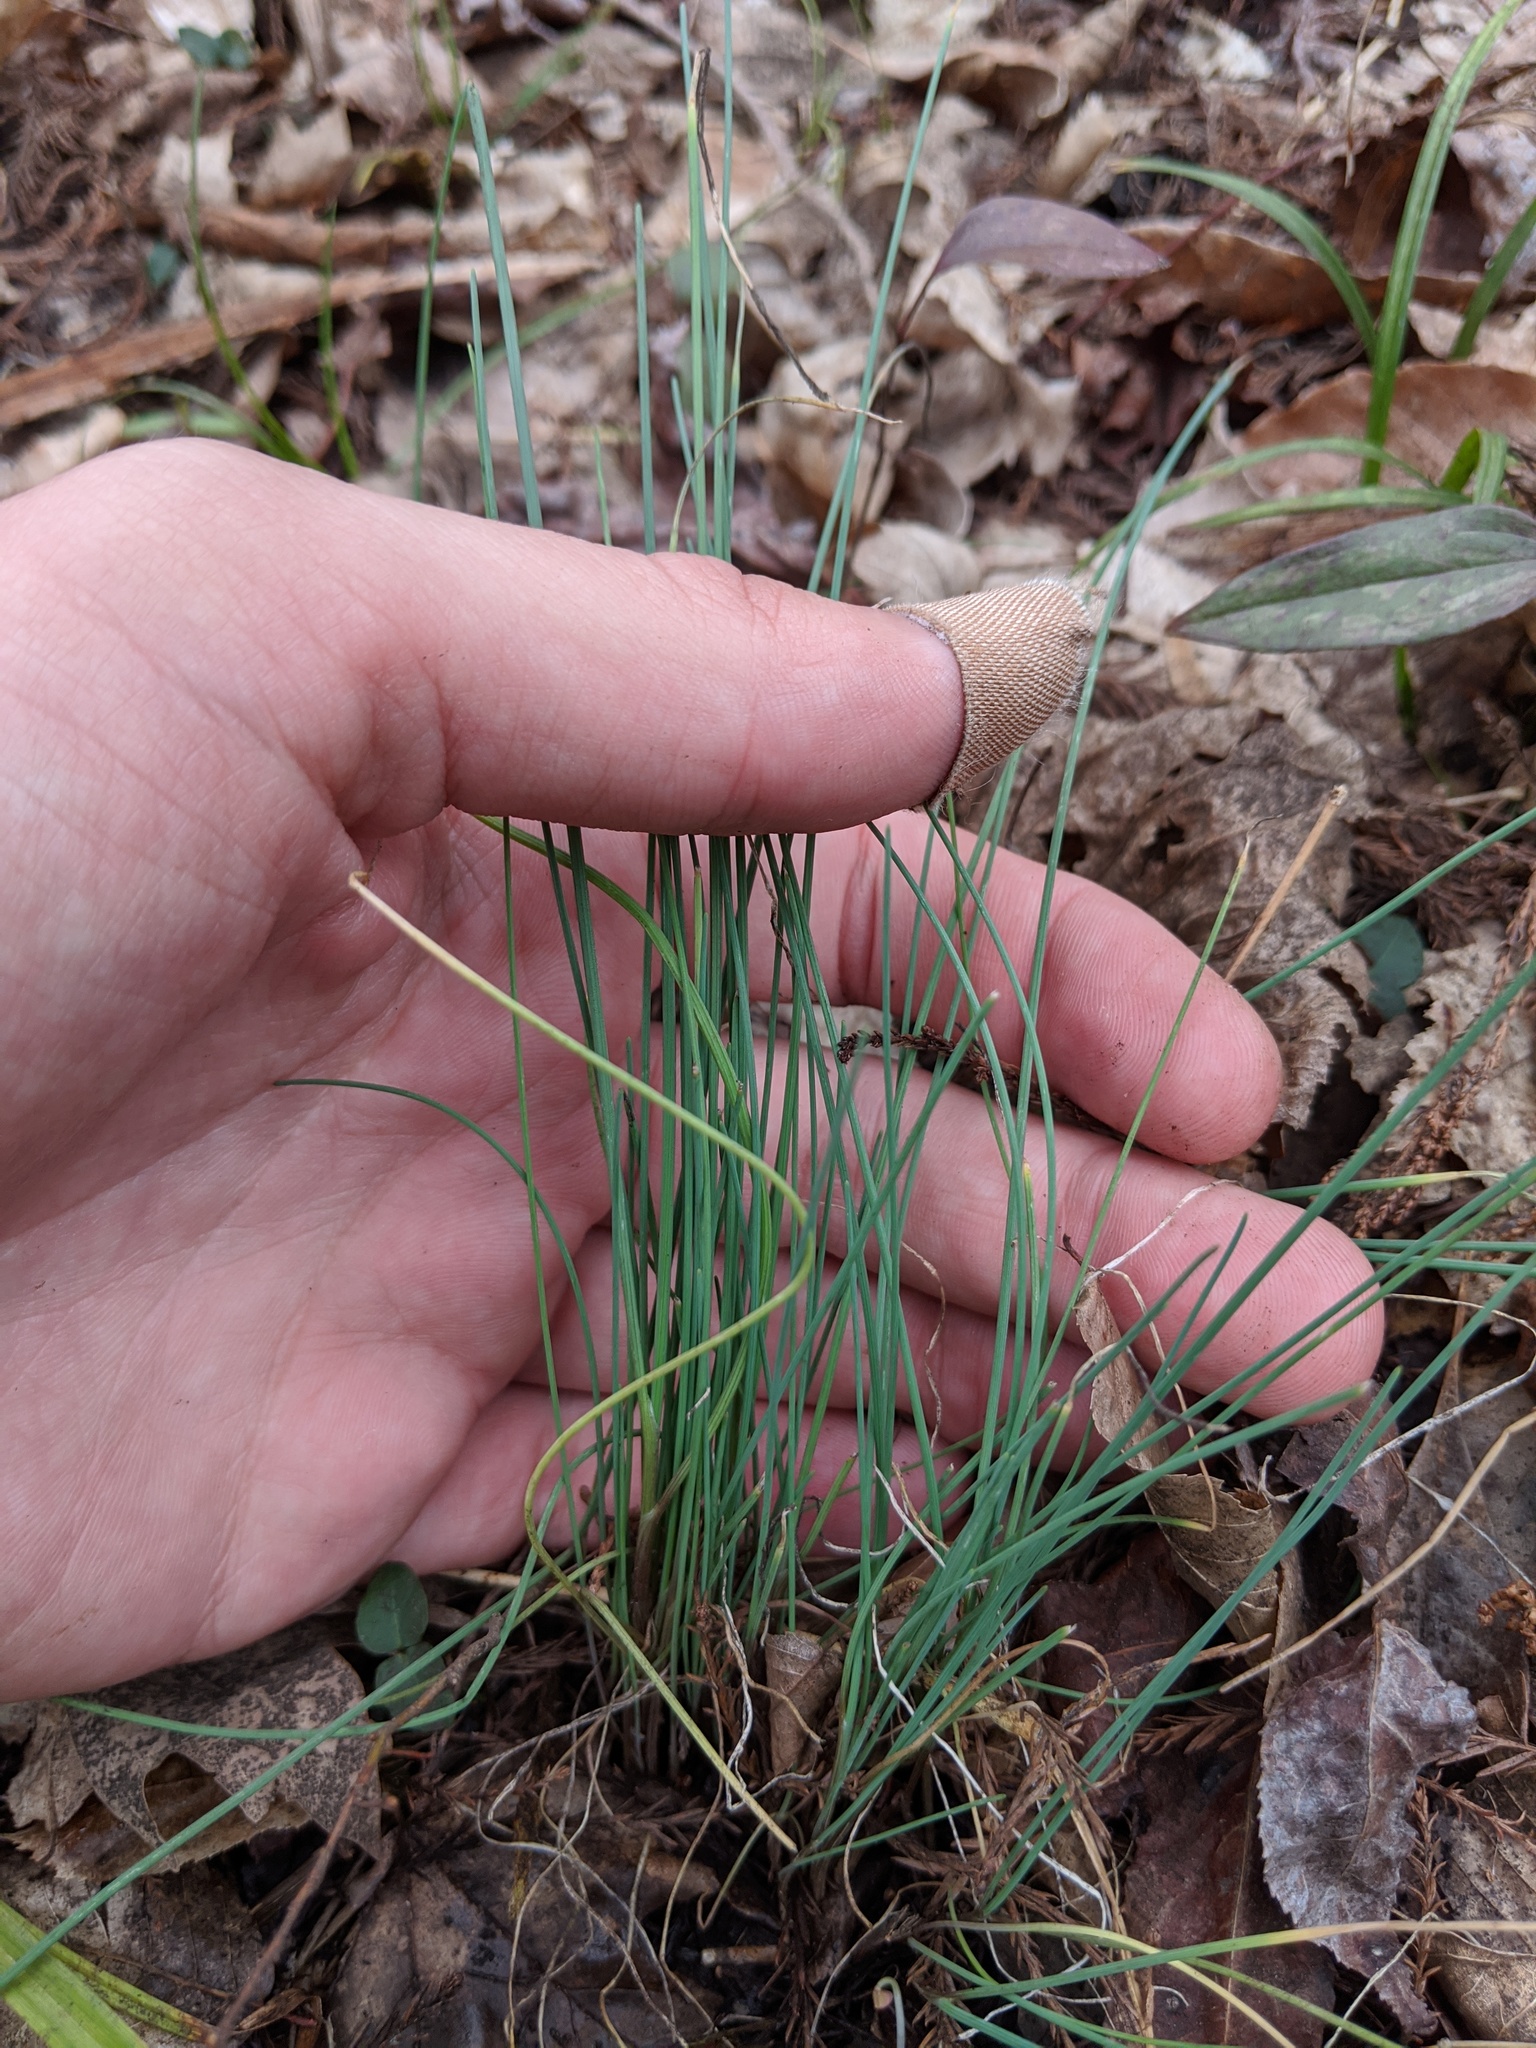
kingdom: Plantae
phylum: Tracheophyta
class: Liliopsida
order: Asparagales
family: Amaryllidaceae
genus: Allium
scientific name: Allium vineale
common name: Crow garlic
